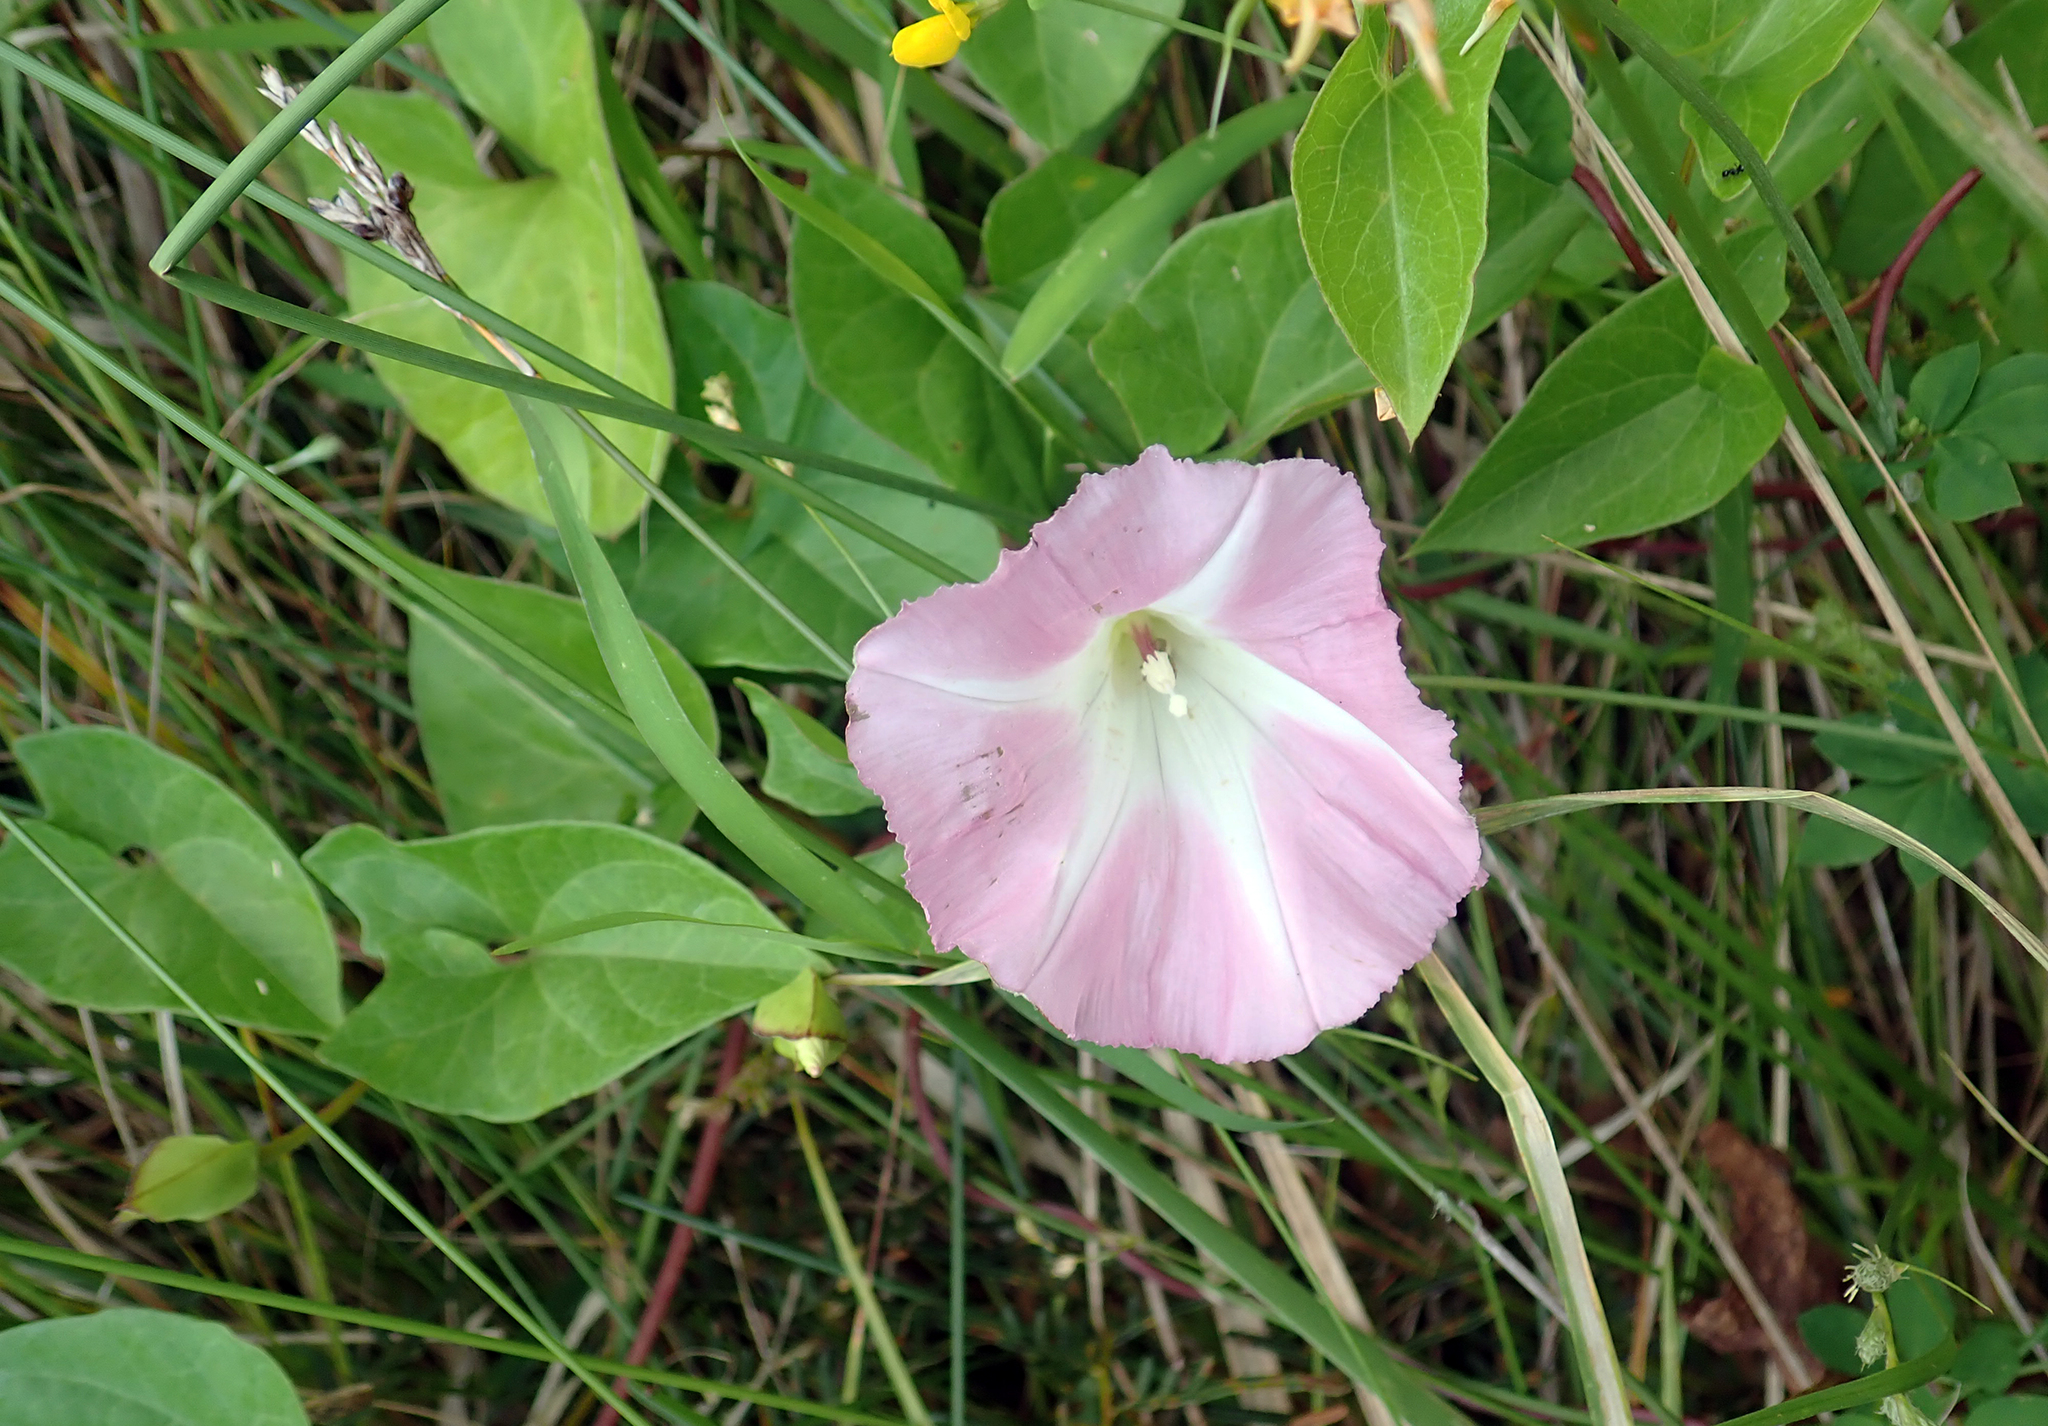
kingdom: Plantae
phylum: Tracheophyta
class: Magnoliopsida
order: Solanales
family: Convolvulaceae
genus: Calystegia
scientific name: Calystegia sepium
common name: Hedge bindweed
